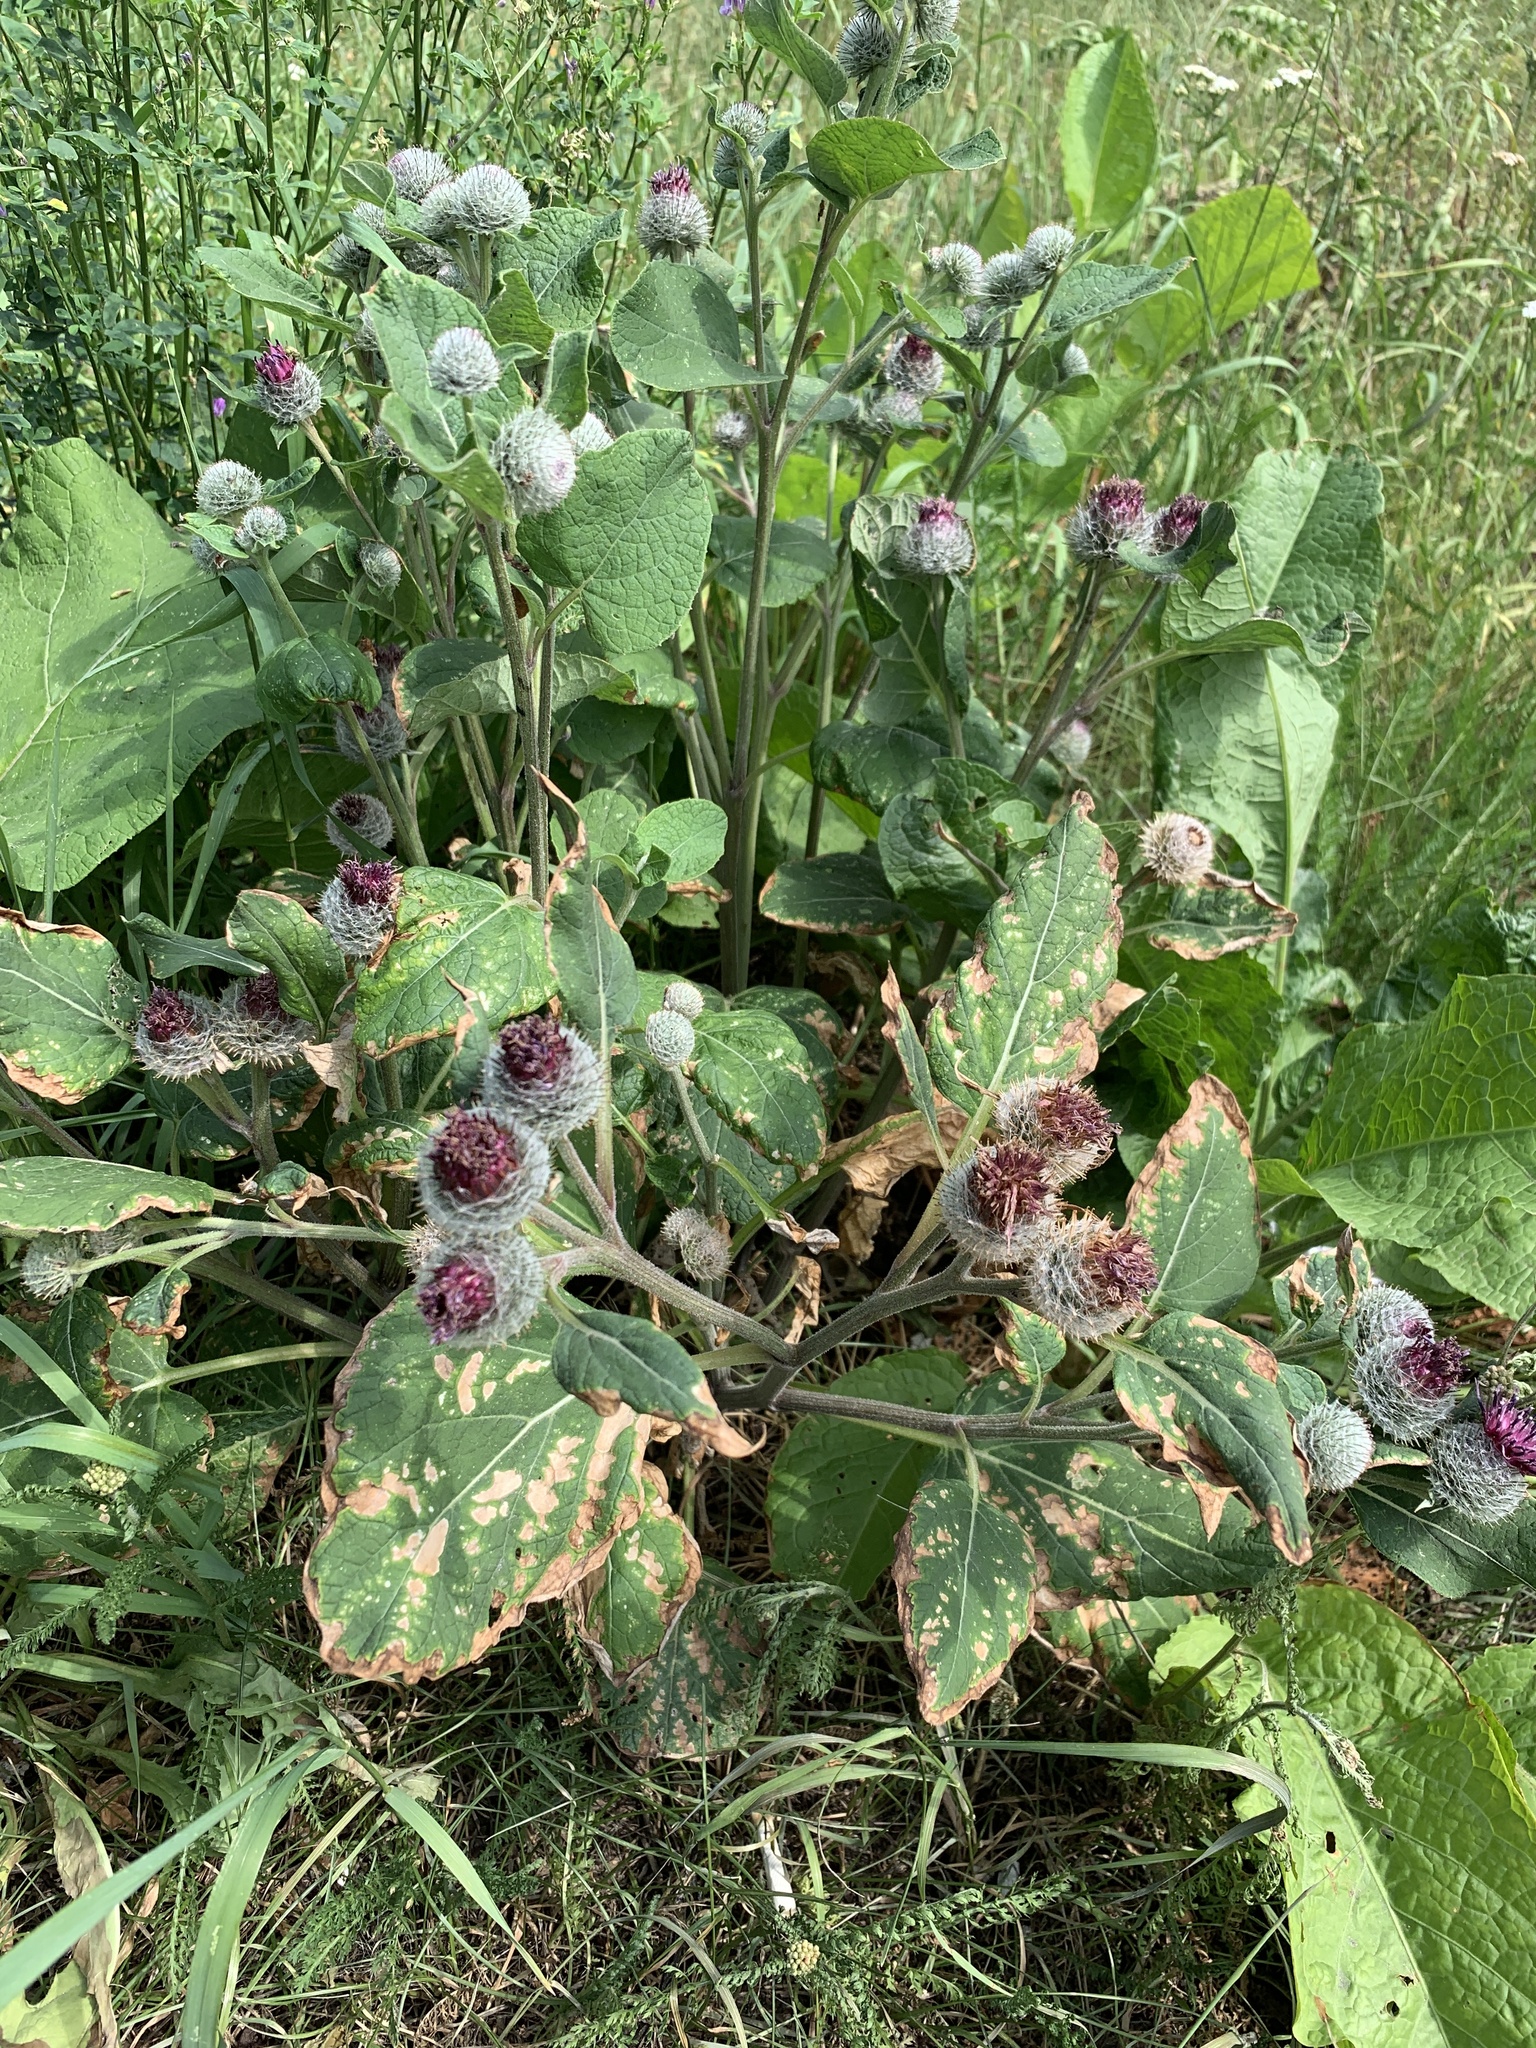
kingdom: Plantae
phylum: Tracheophyta
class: Magnoliopsida
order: Asterales
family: Asteraceae
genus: Arctium
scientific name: Arctium tomentosum
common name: Woolly burdock
